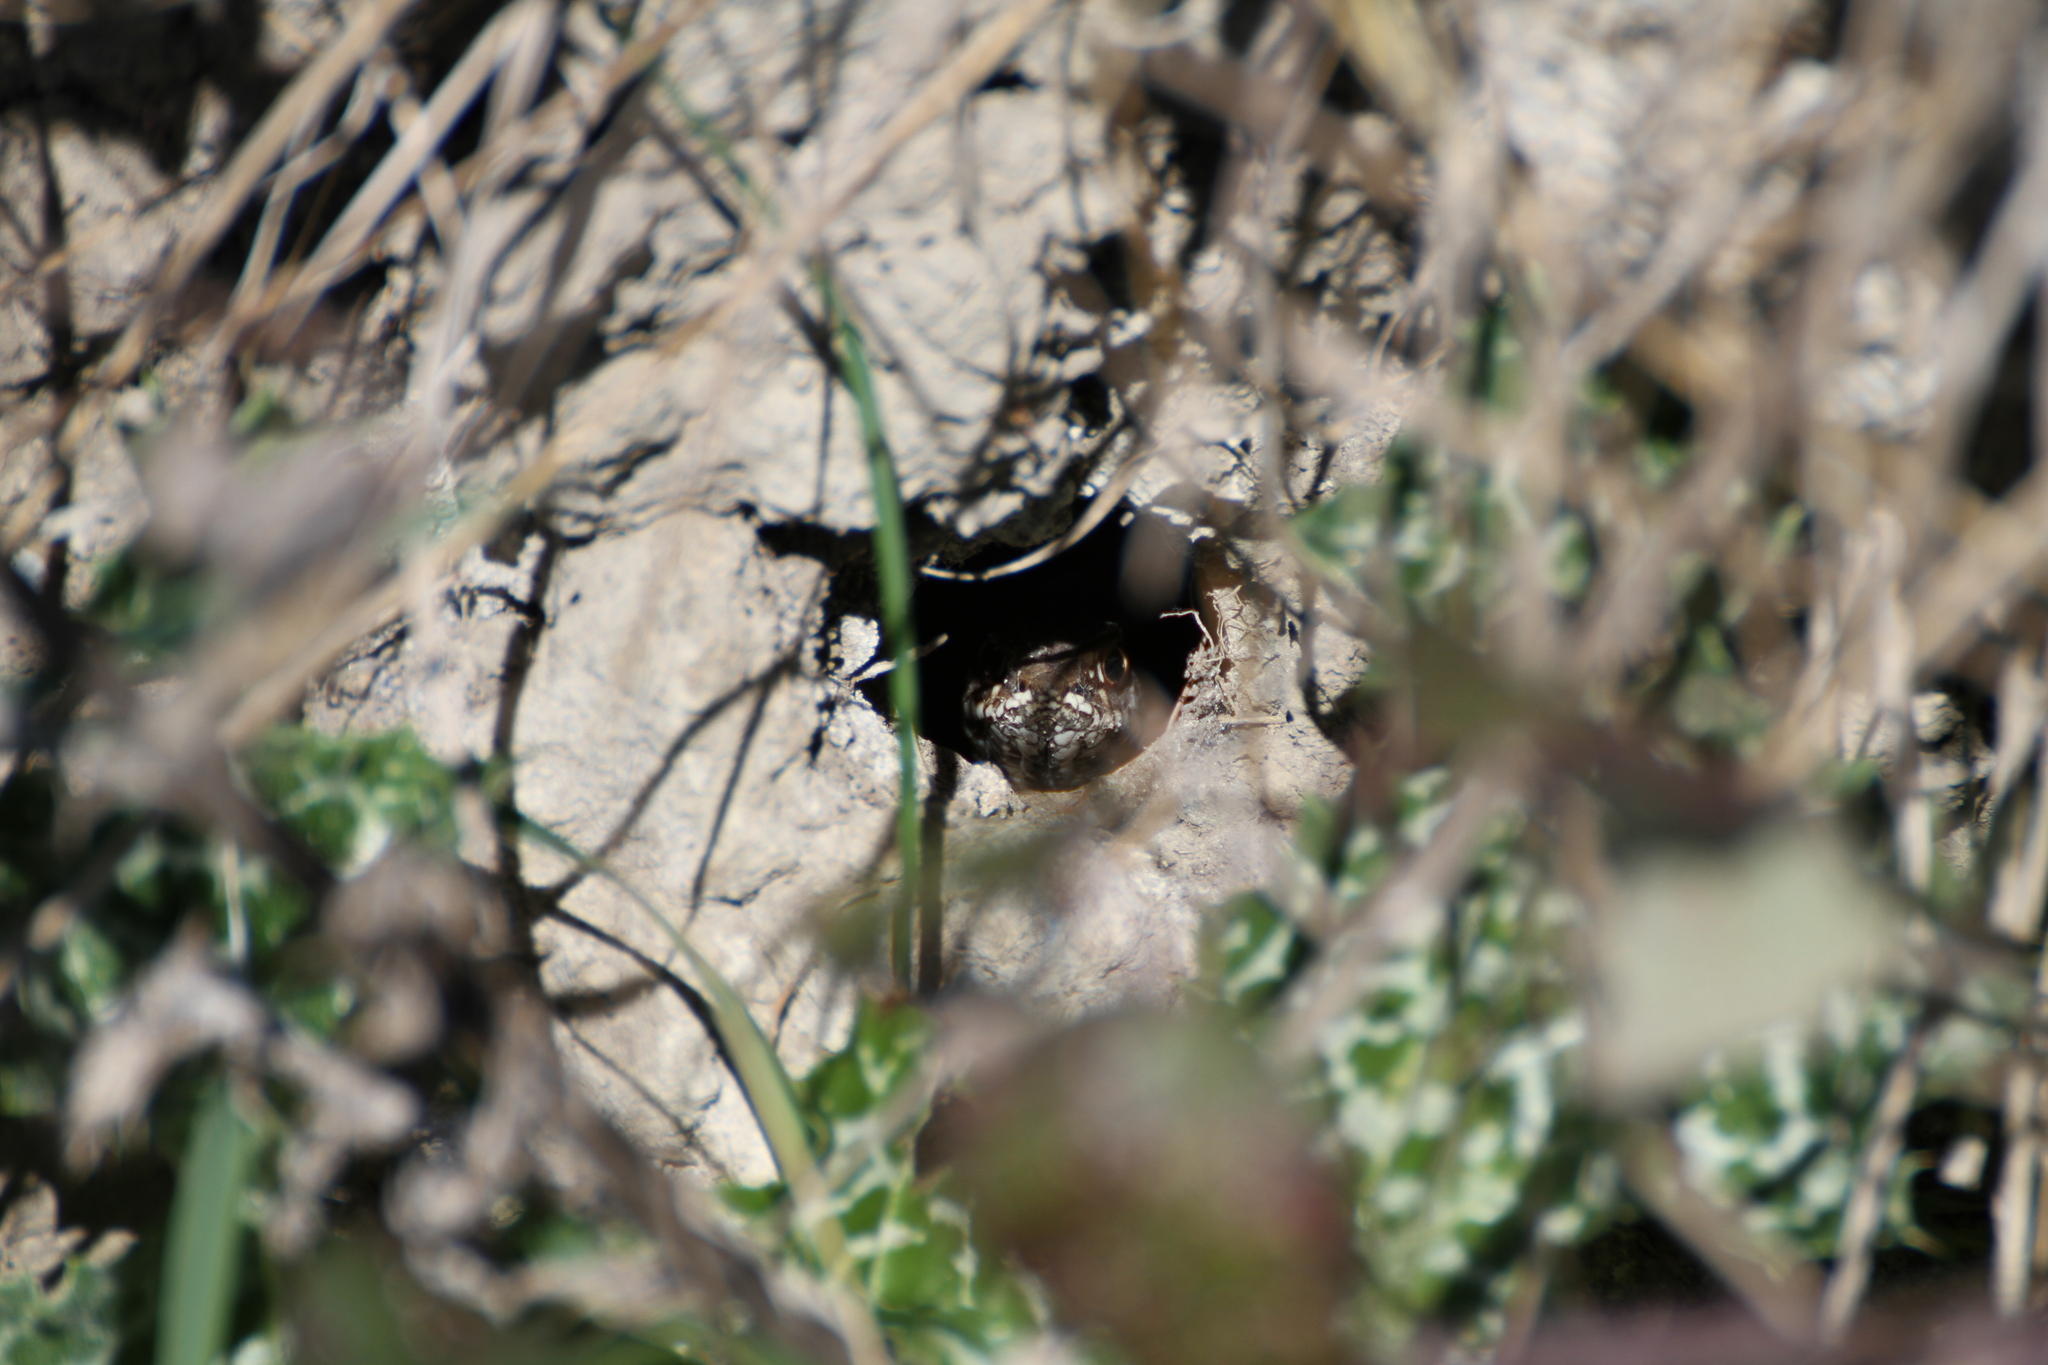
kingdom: Animalia
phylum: Chordata
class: Squamata
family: Psammophiidae
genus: Malpolon
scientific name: Malpolon monspessulanus
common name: Montpellier snake
